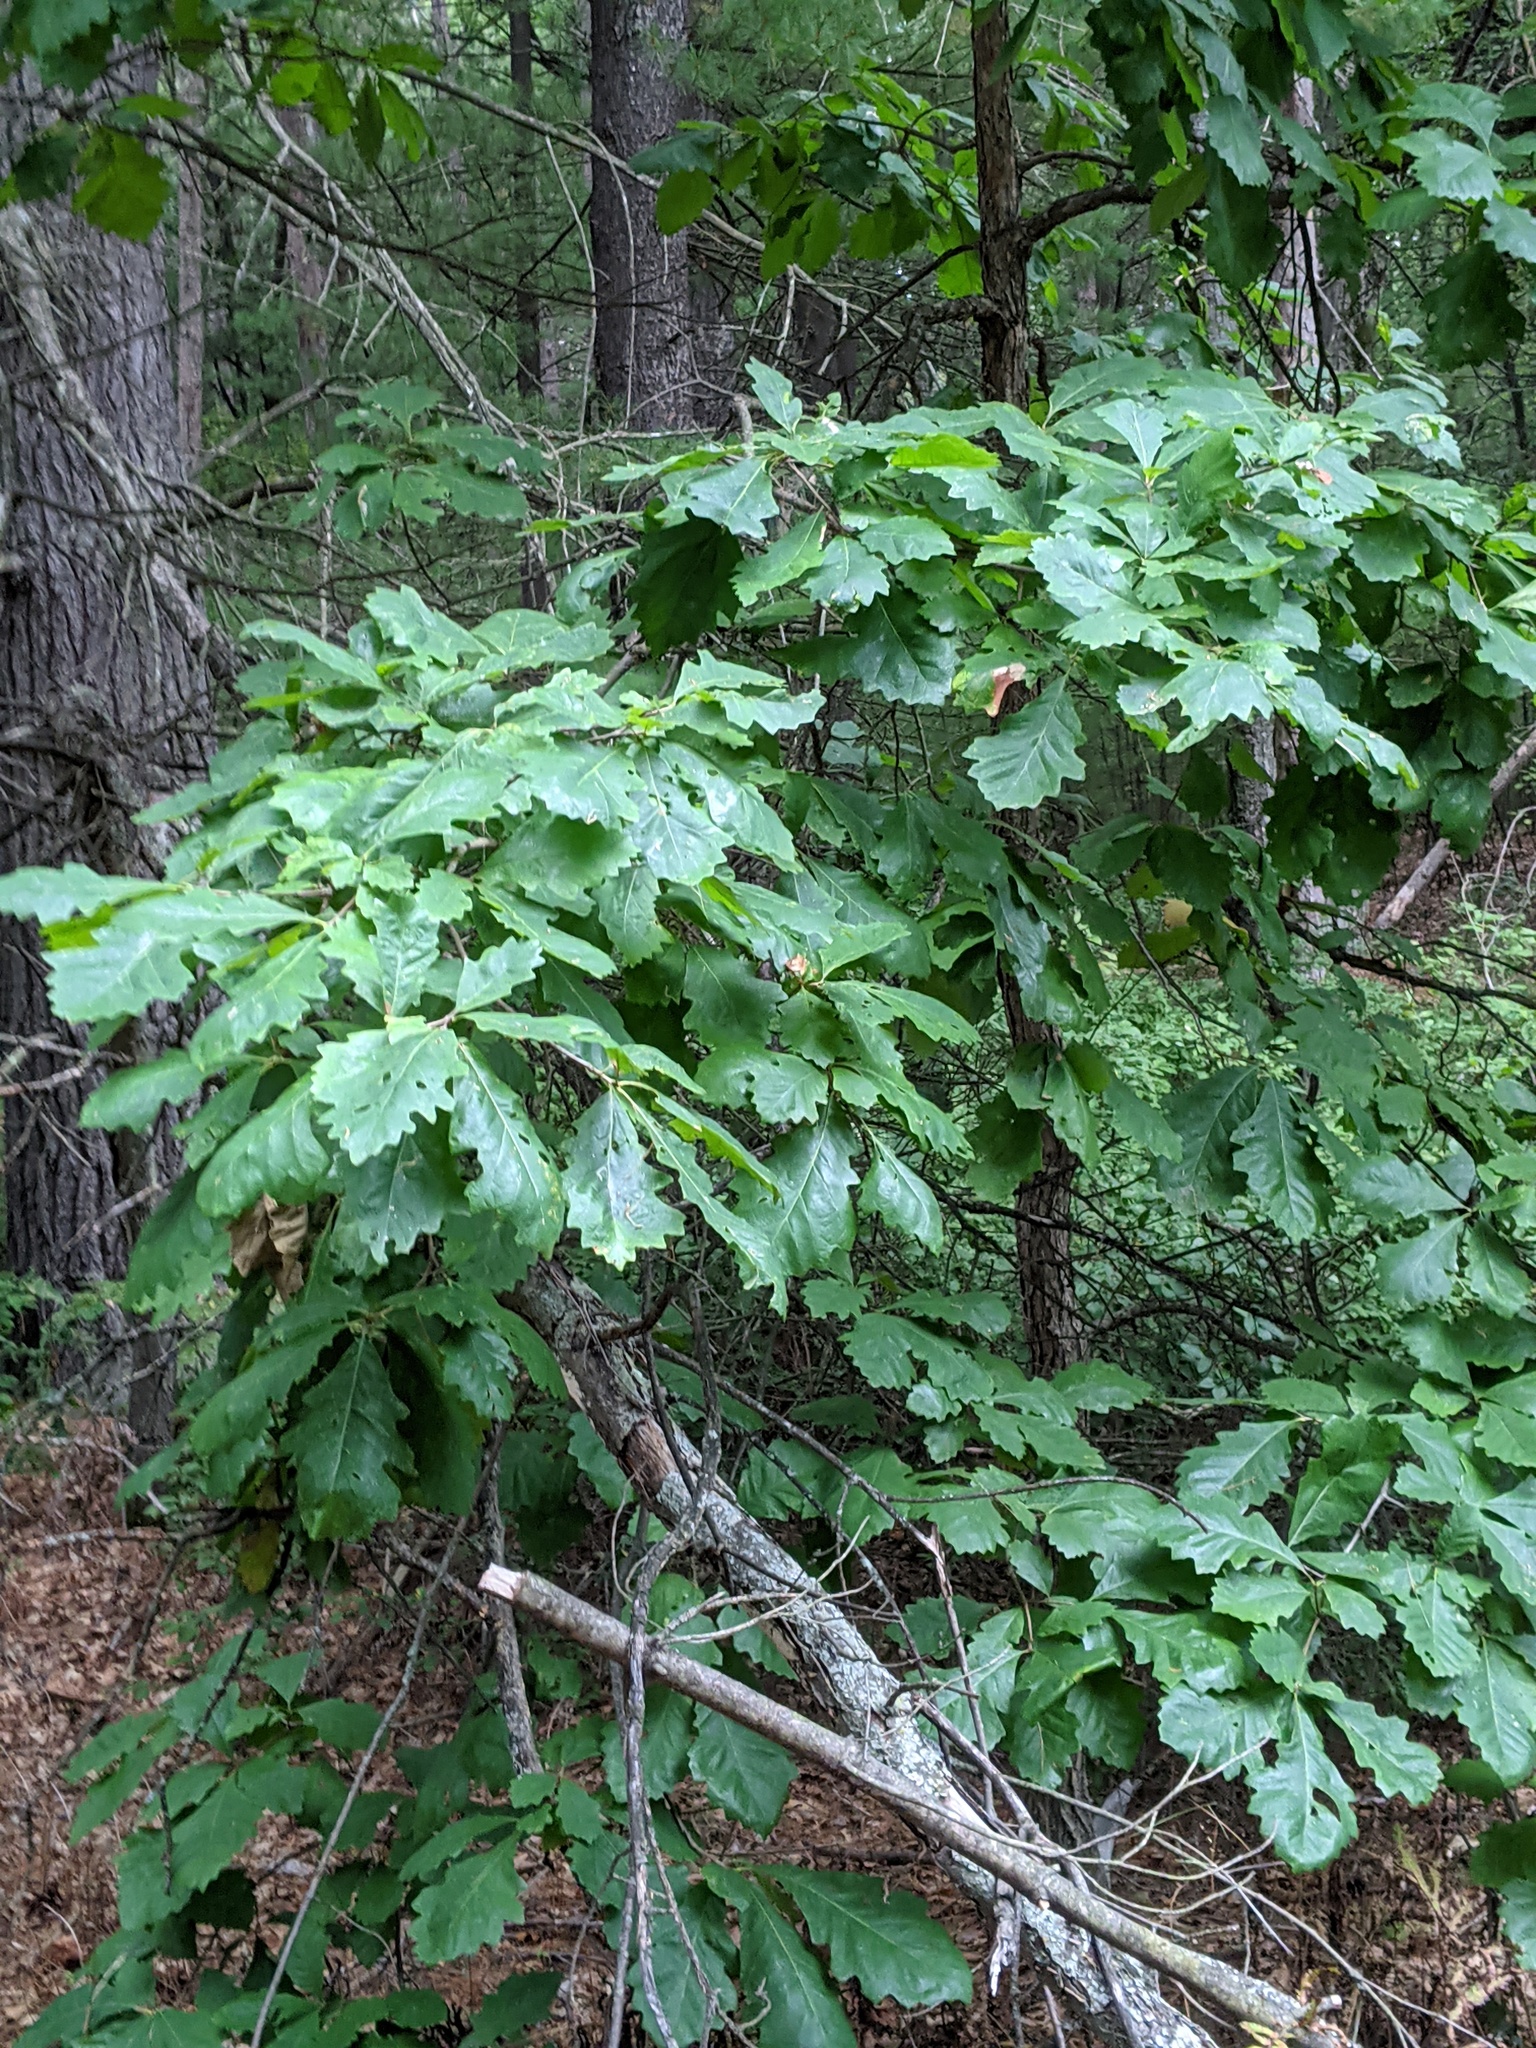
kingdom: Plantae
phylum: Tracheophyta
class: Magnoliopsida
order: Fagales
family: Fagaceae
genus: Quercus
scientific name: Quercus bicolor
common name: Swamp white oak
